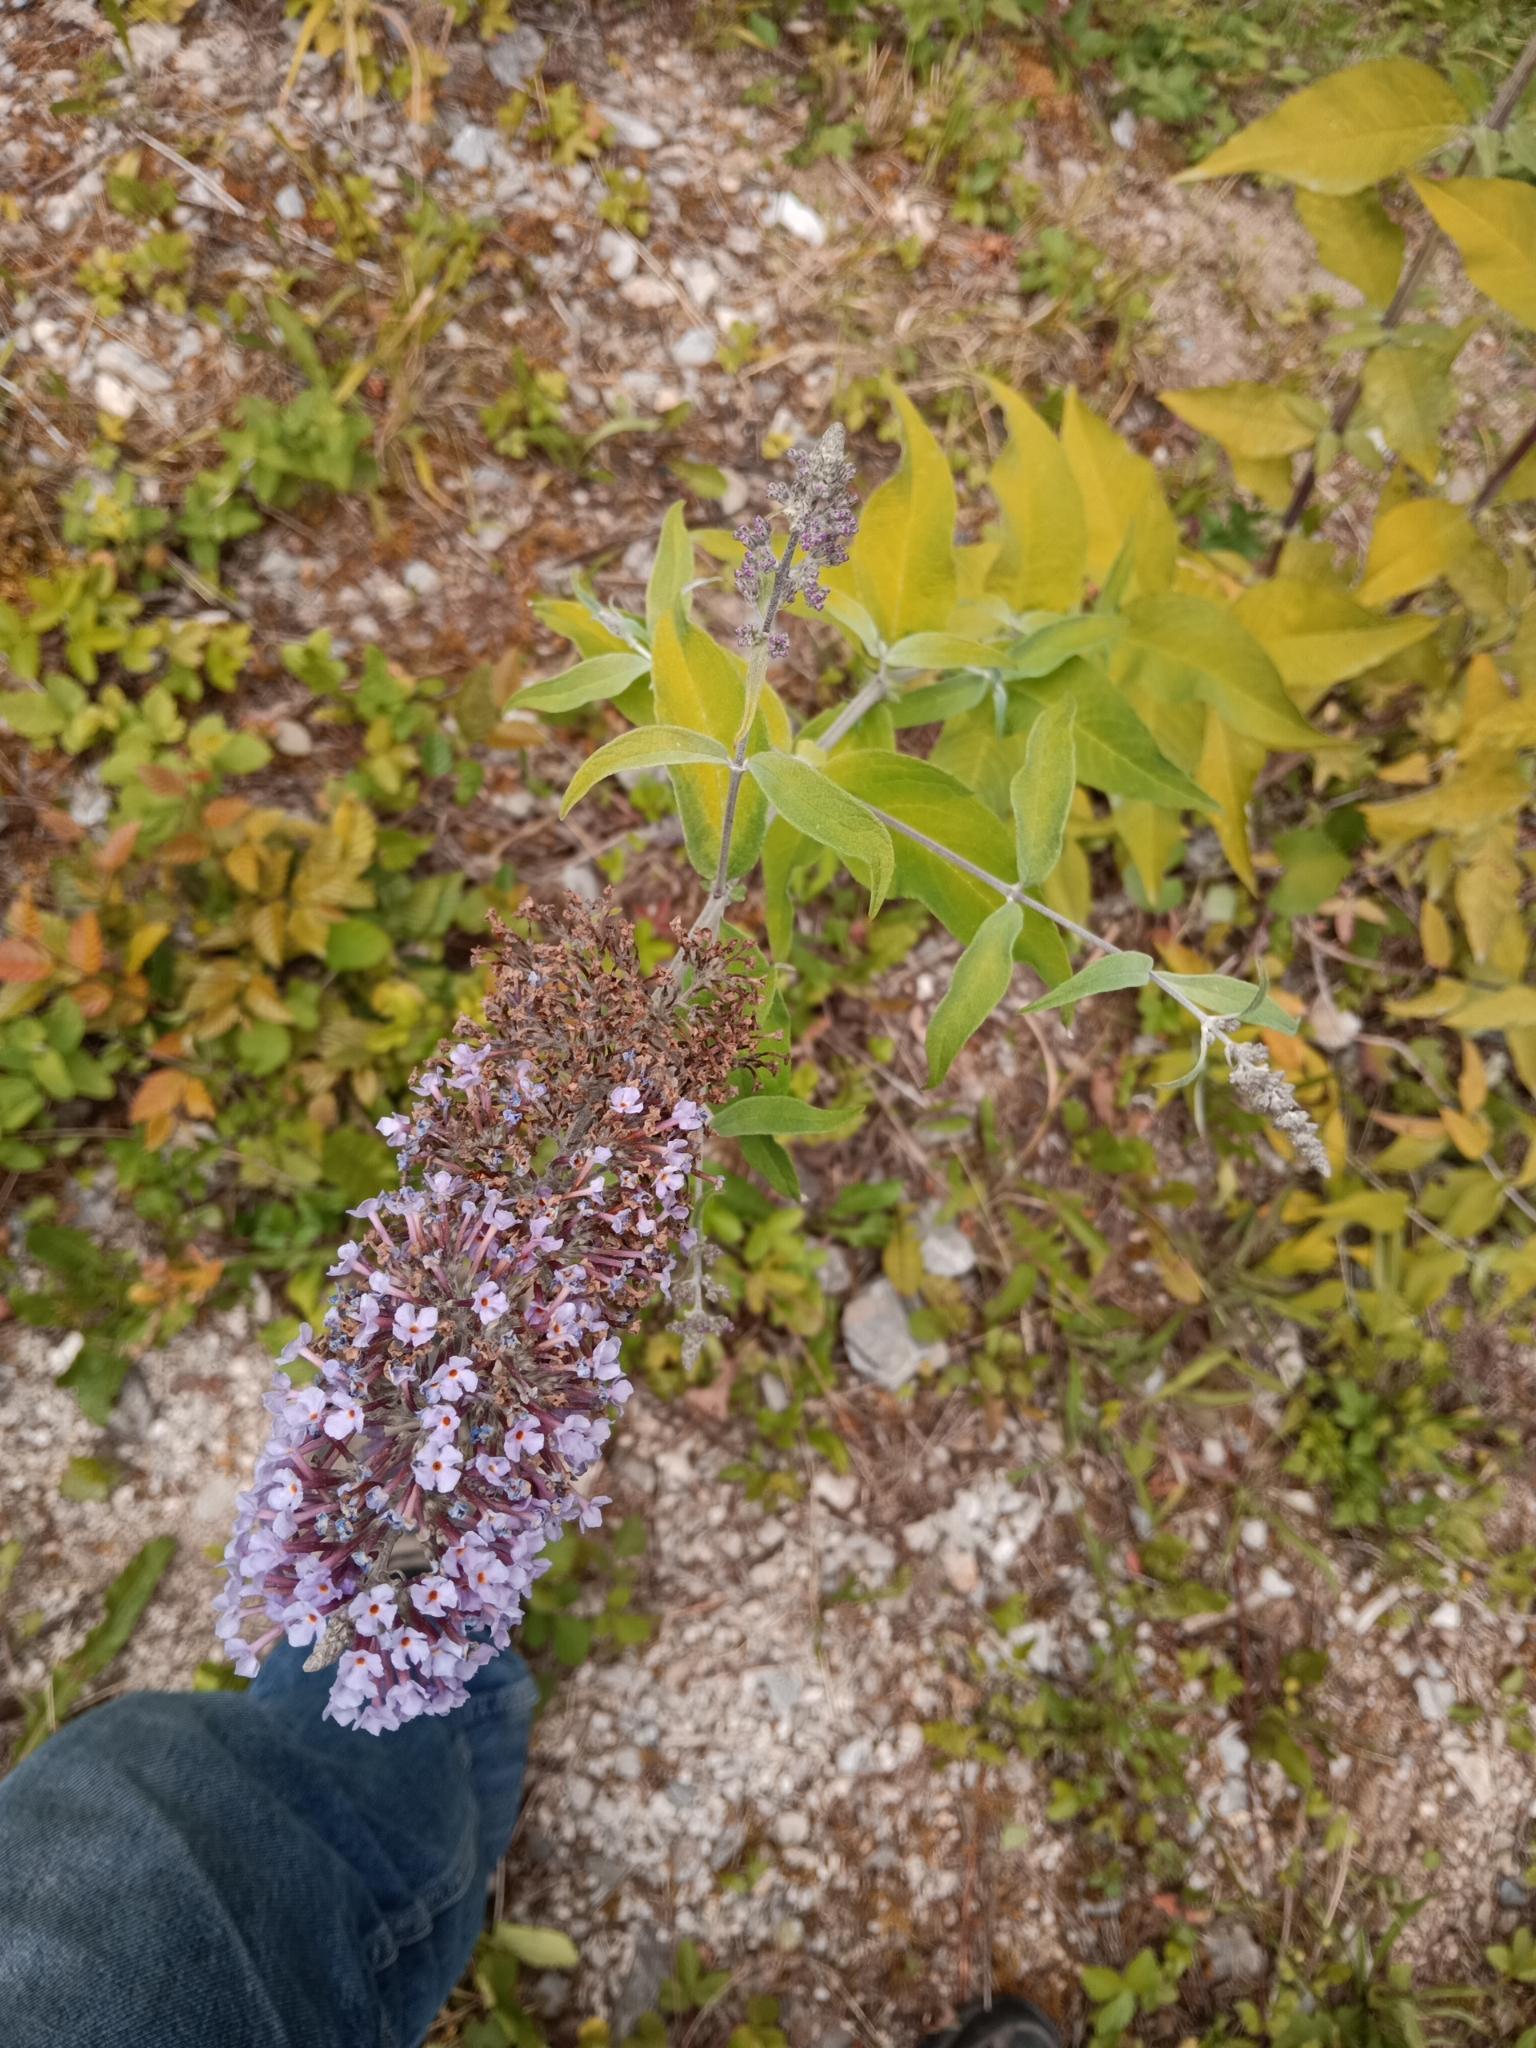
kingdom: Plantae
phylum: Tracheophyta
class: Magnoliopsida
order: Lamiales
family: Scrophulariaceae
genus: Buddleja
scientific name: Buddleja davidii
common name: Butterfly-bush
